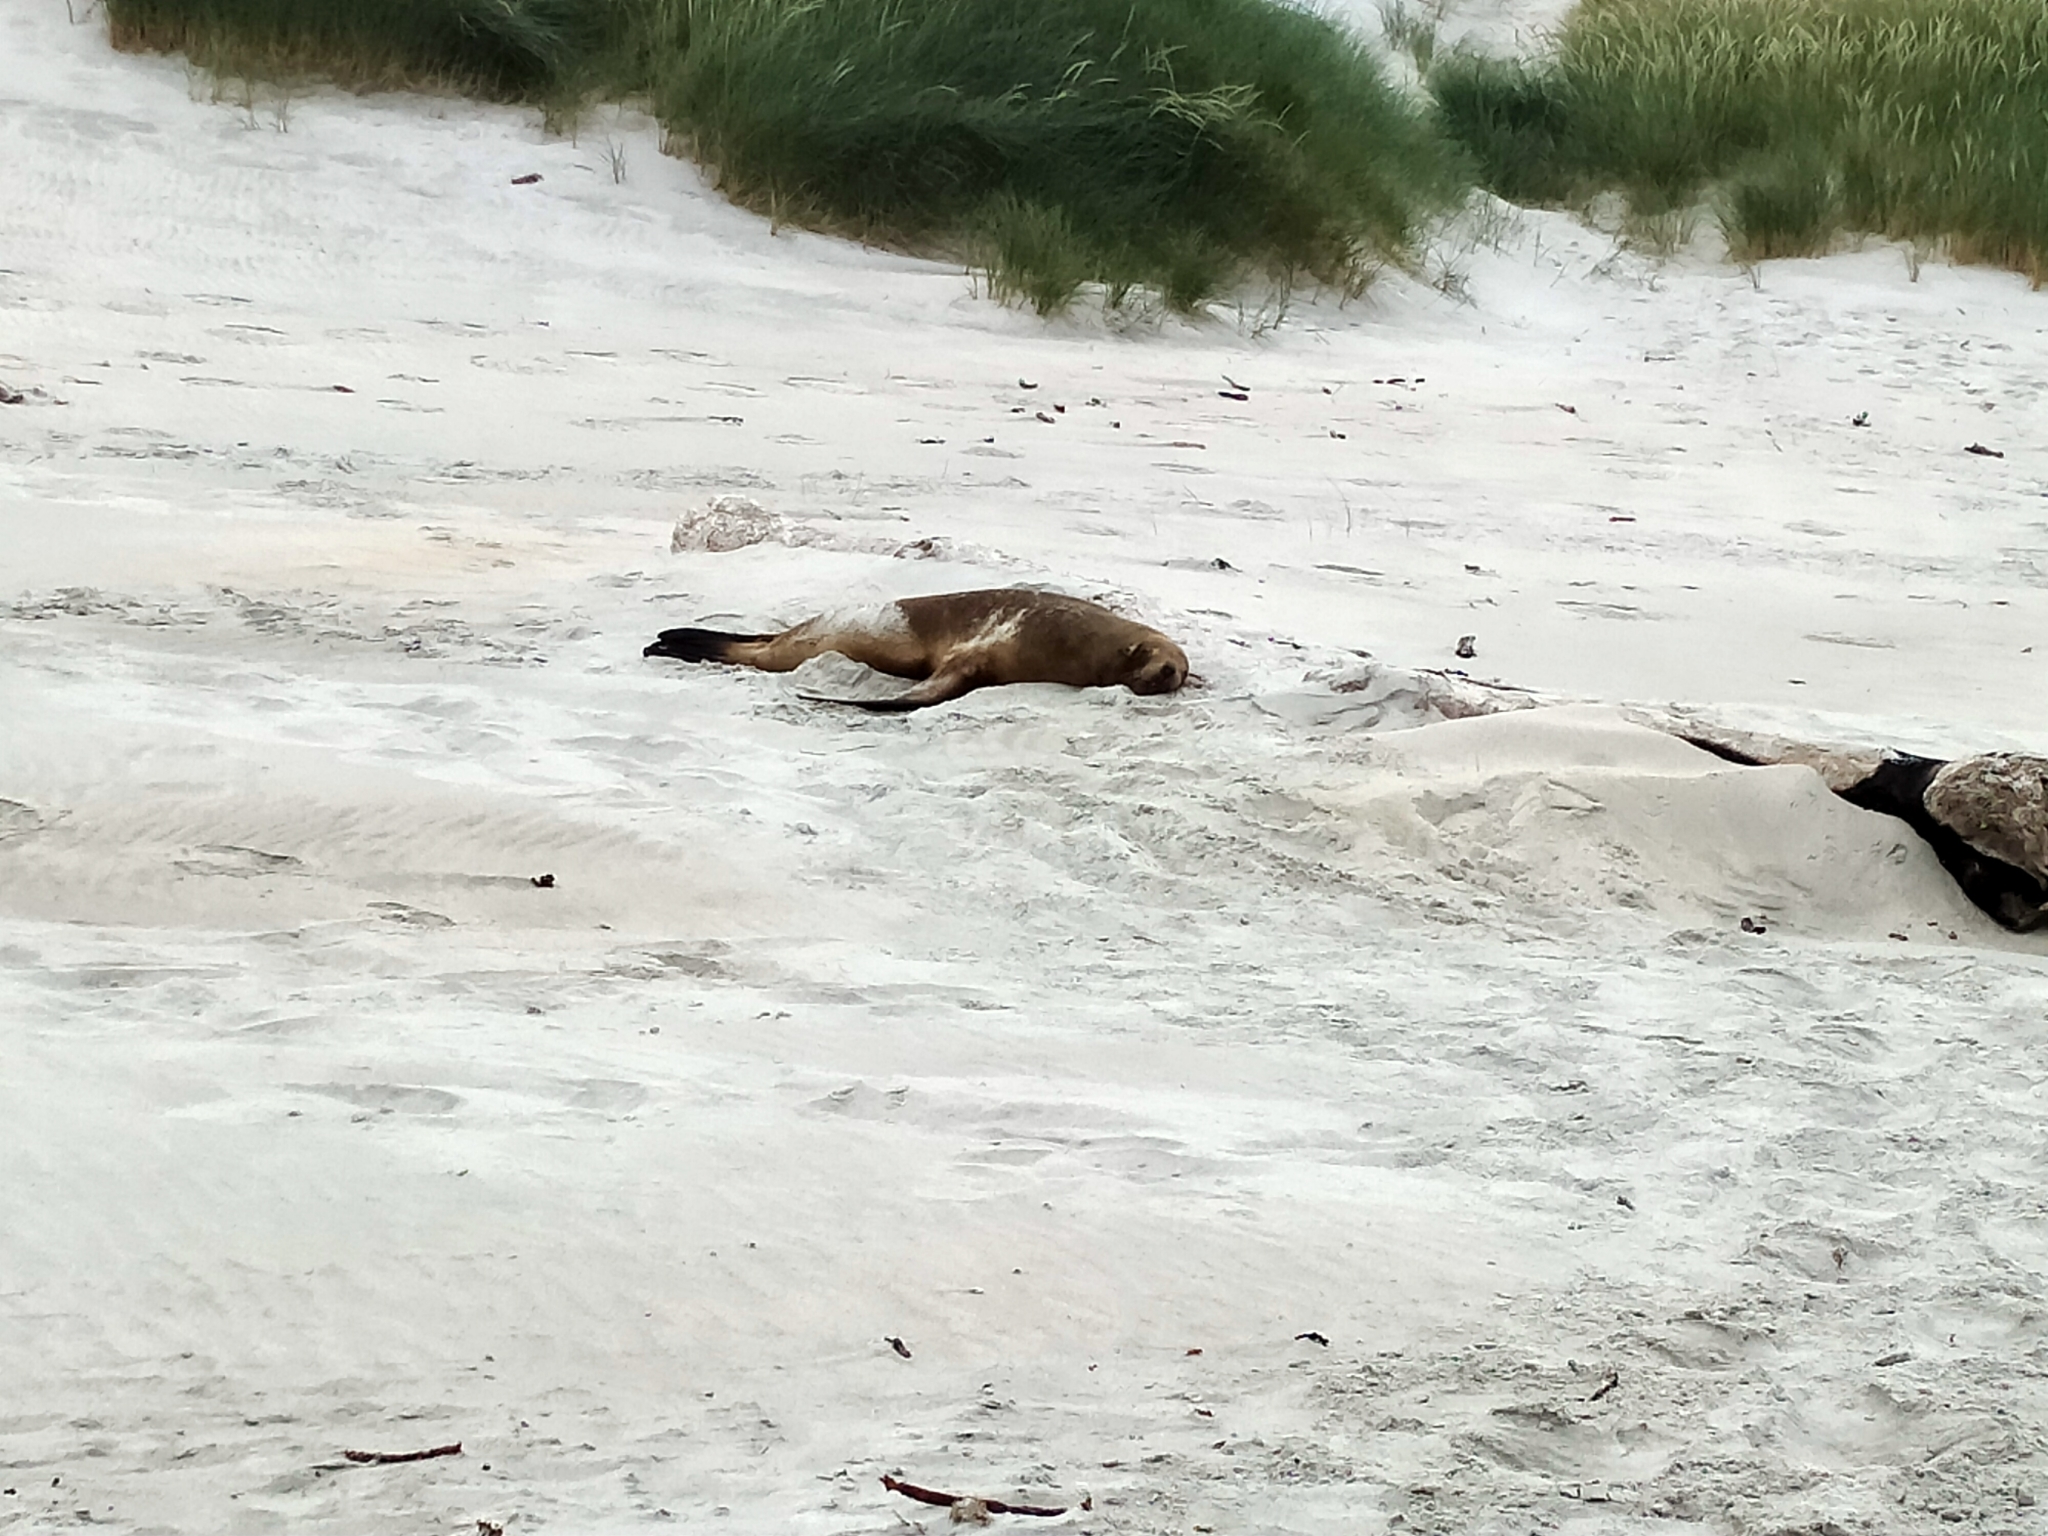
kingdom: Animalia
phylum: Chordata
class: Mammalia
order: Carnivora
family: Otariidae
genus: Phocarctos
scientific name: Phocarctos hookeri
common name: New zealand sea lion
